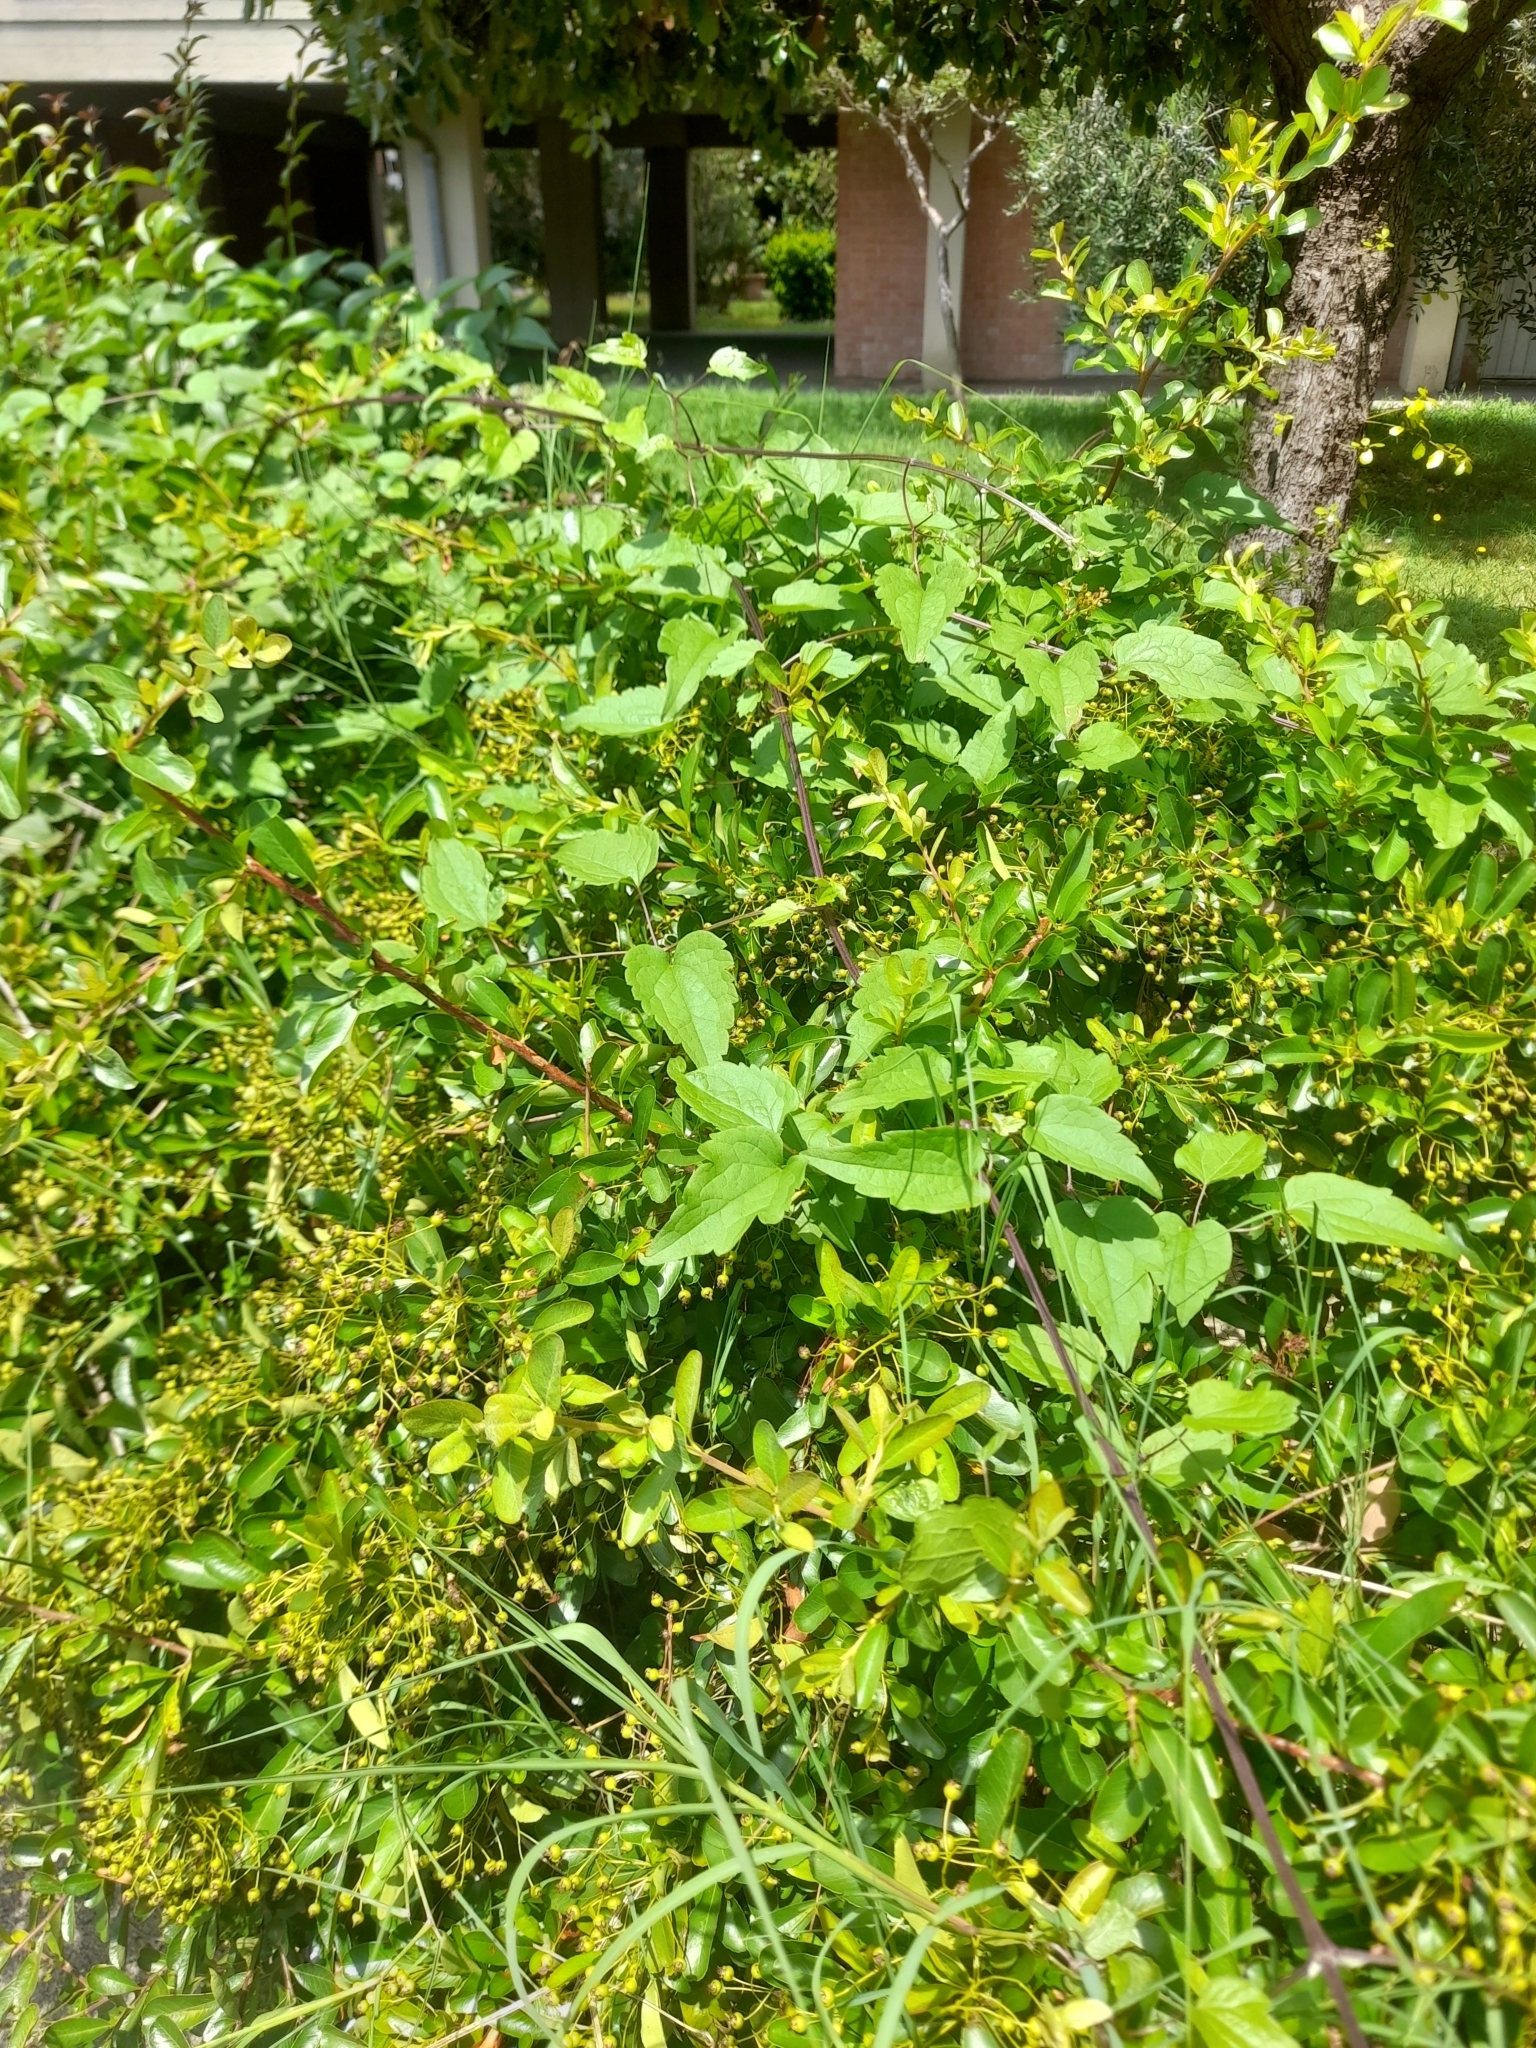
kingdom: Plantae
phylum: Tracheophyta
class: Magnoliopsida
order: Ranunculales
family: Ranunculaceae
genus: Clematis
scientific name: Clematis vitalba
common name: Evergreen clematis
